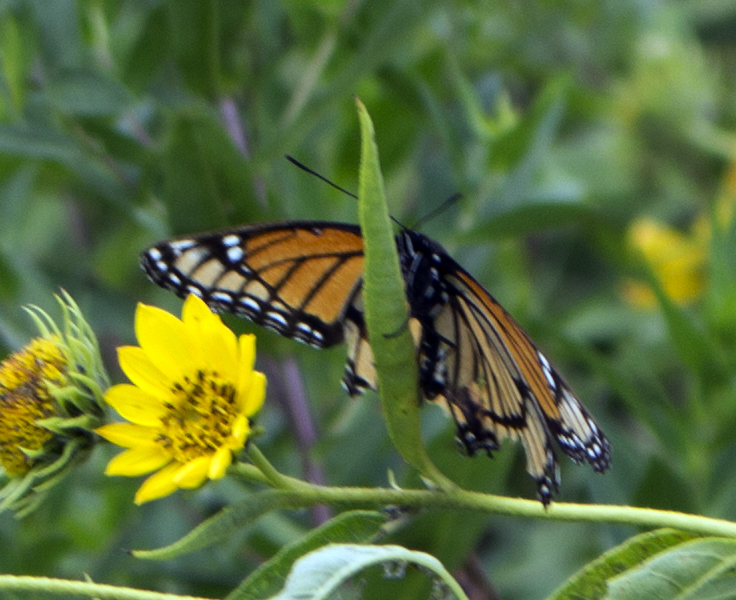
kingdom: Animalia
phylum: Arthropoda
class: Insecta
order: Lepidoptera
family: Nymphalidae
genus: Limenitis
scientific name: Limenitis archippus
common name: Viceroy
